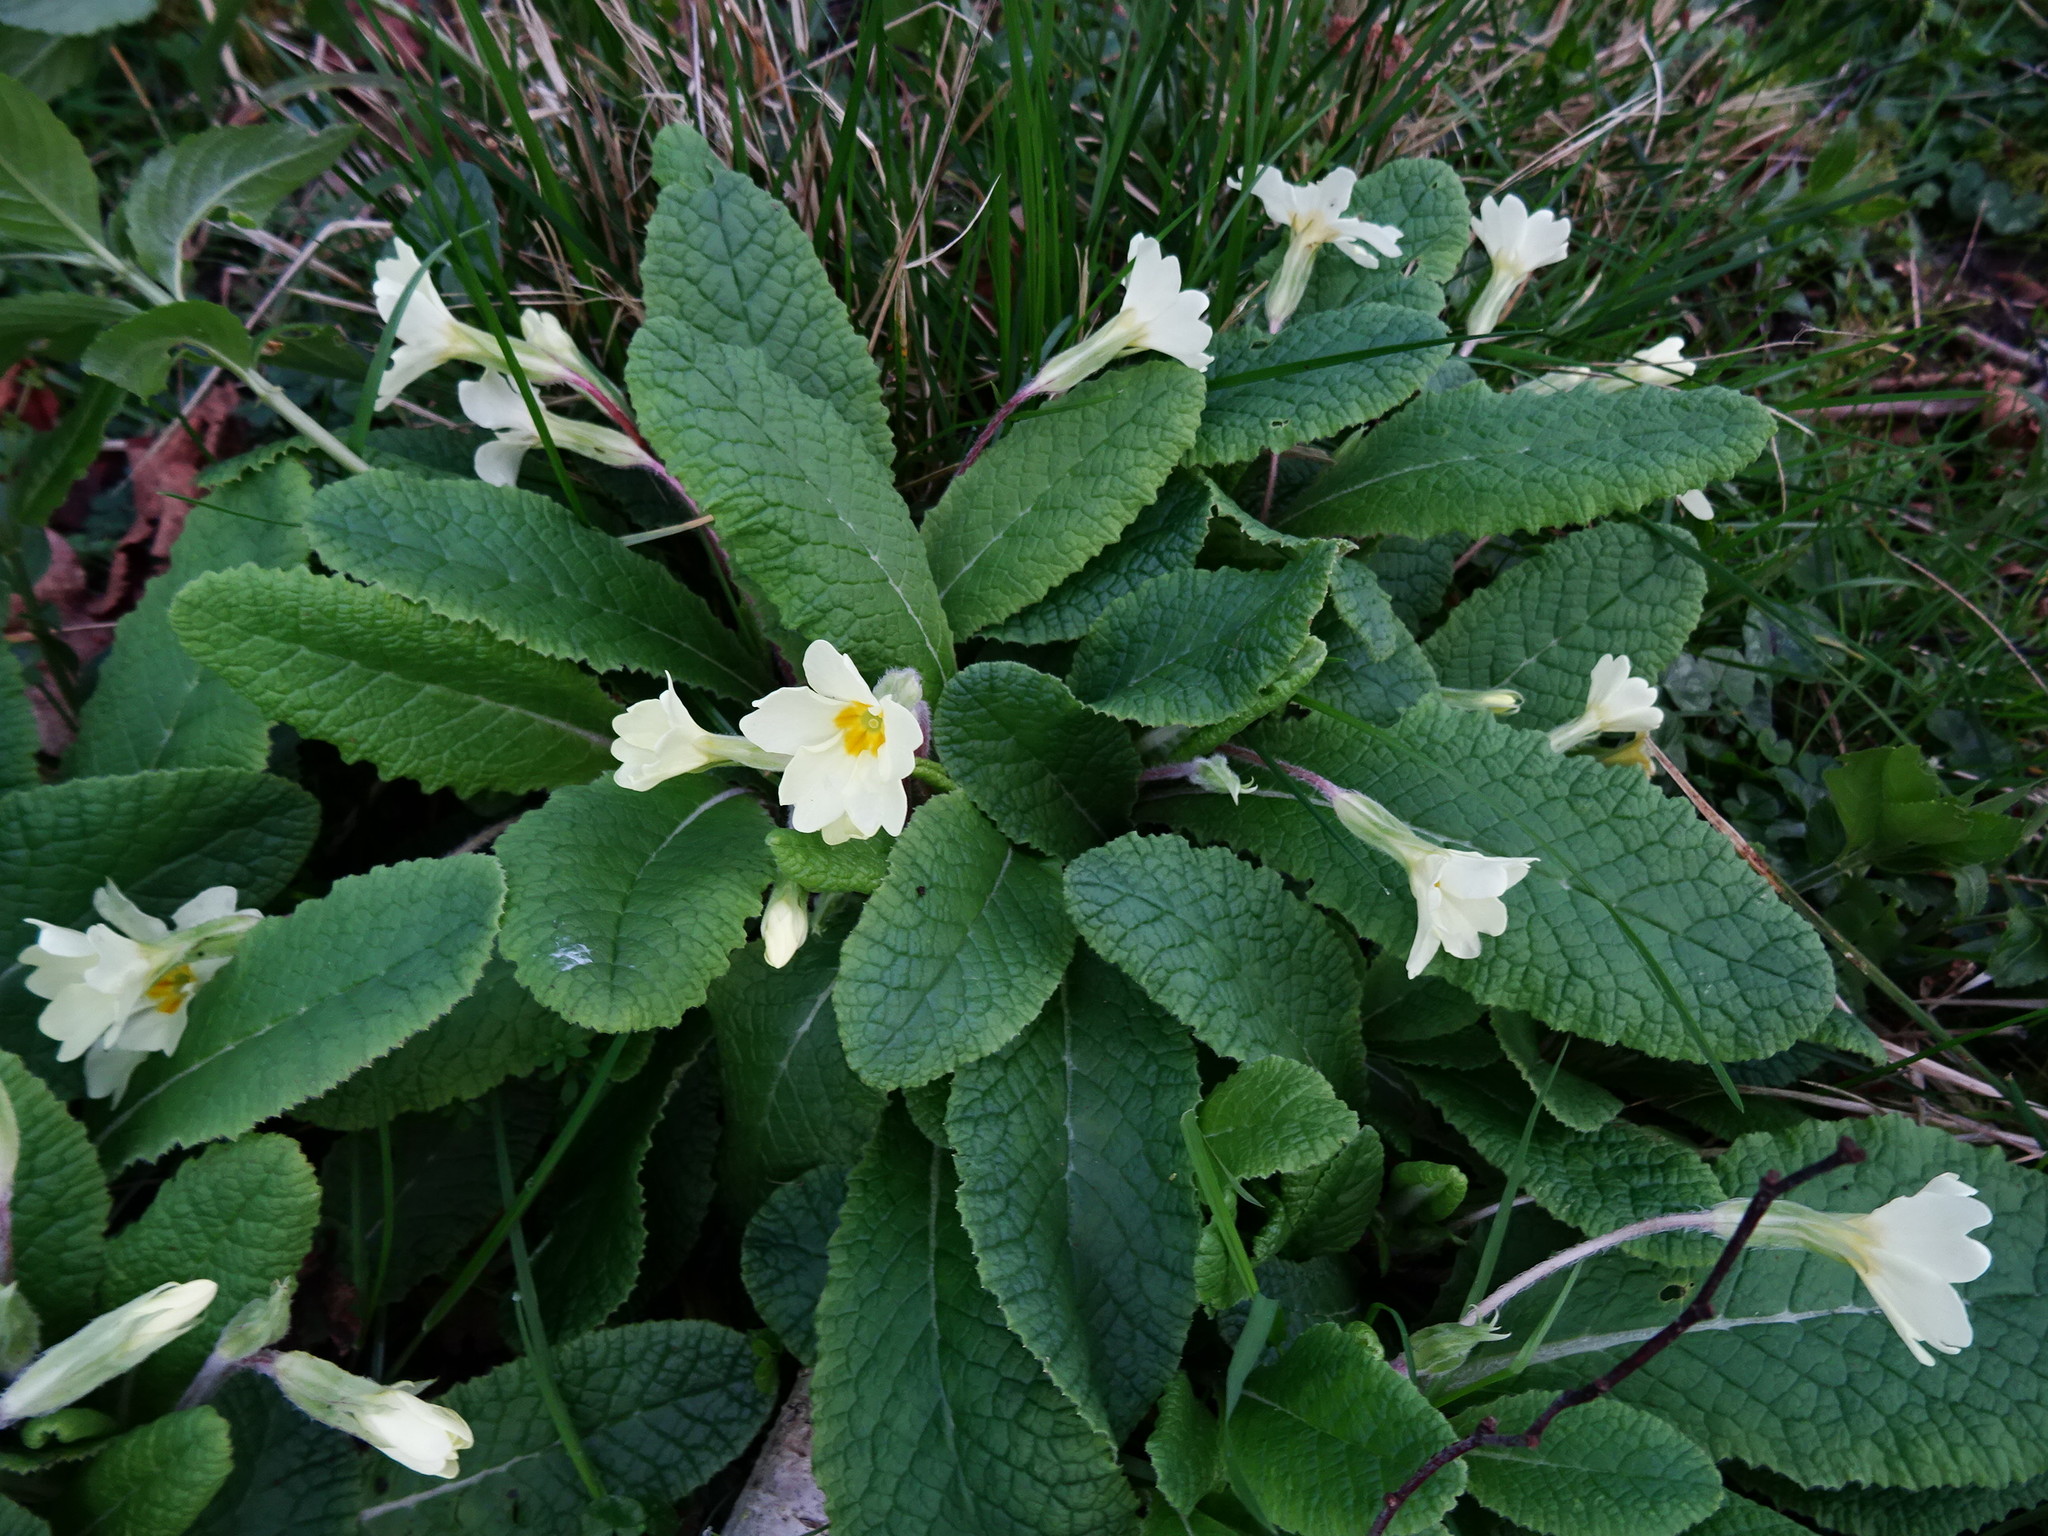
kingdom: Plantae
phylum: Tracheophyta
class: Magnoliopsida
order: Ericales
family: Primulaceae
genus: Primula
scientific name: Primula vulgaris
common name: Primrose
